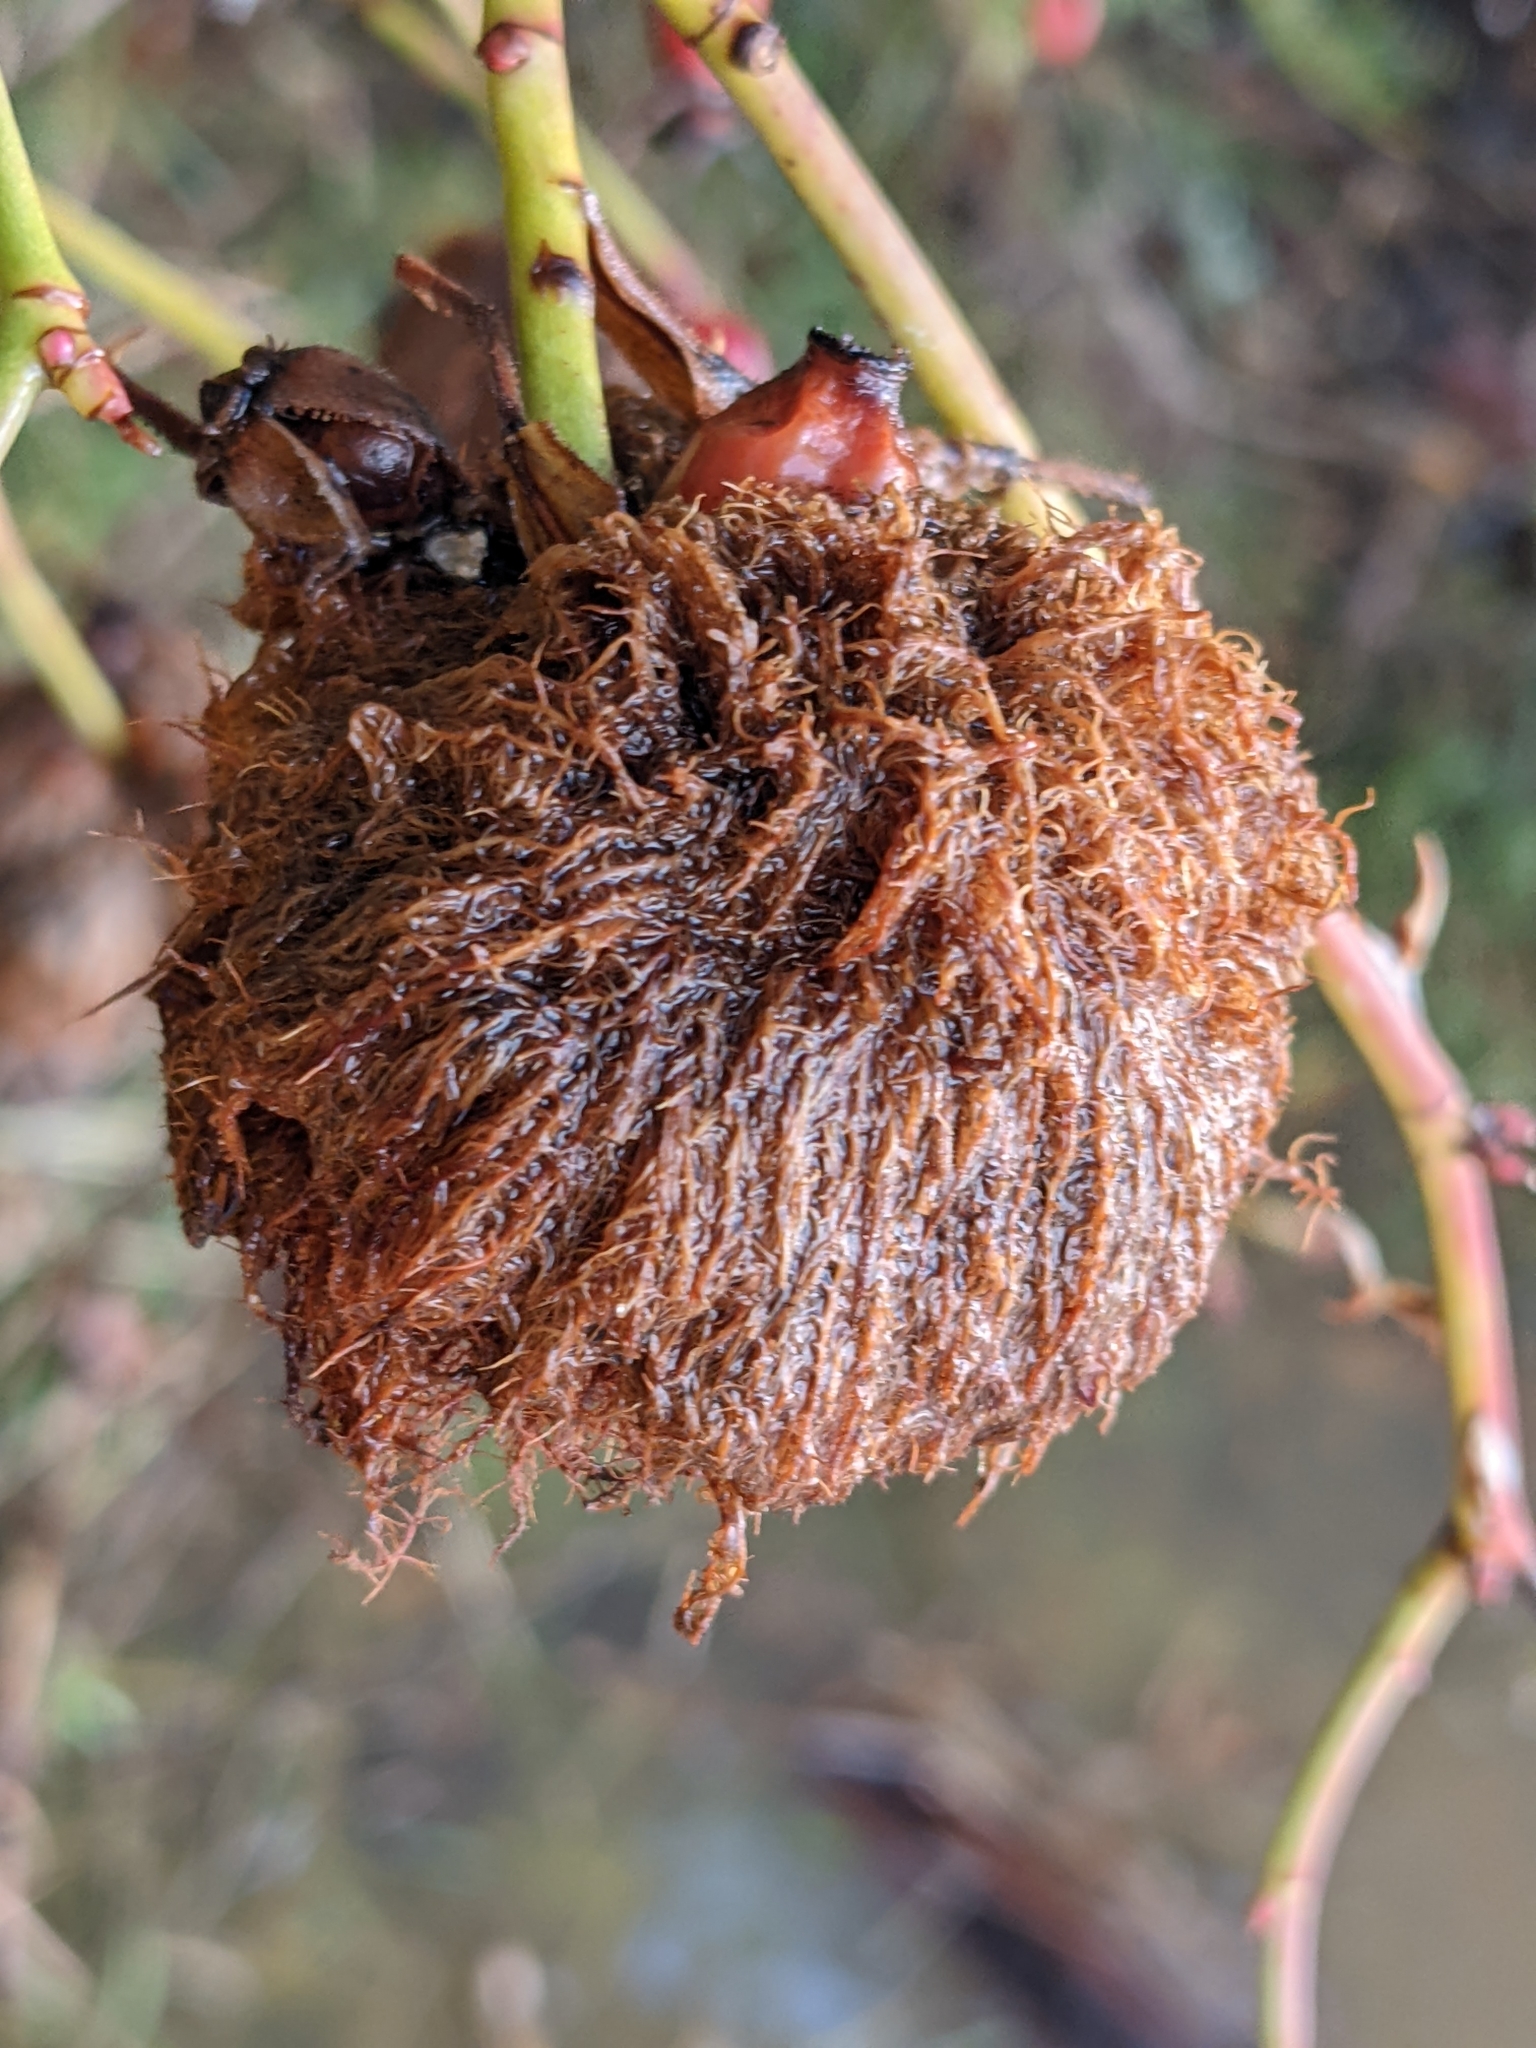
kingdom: Animalia
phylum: Arthropoda
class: Insecta
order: Hymenoptera
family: Cynipidae
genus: Diplolepis
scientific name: Diplolepis rosae
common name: Bedeguar gall
